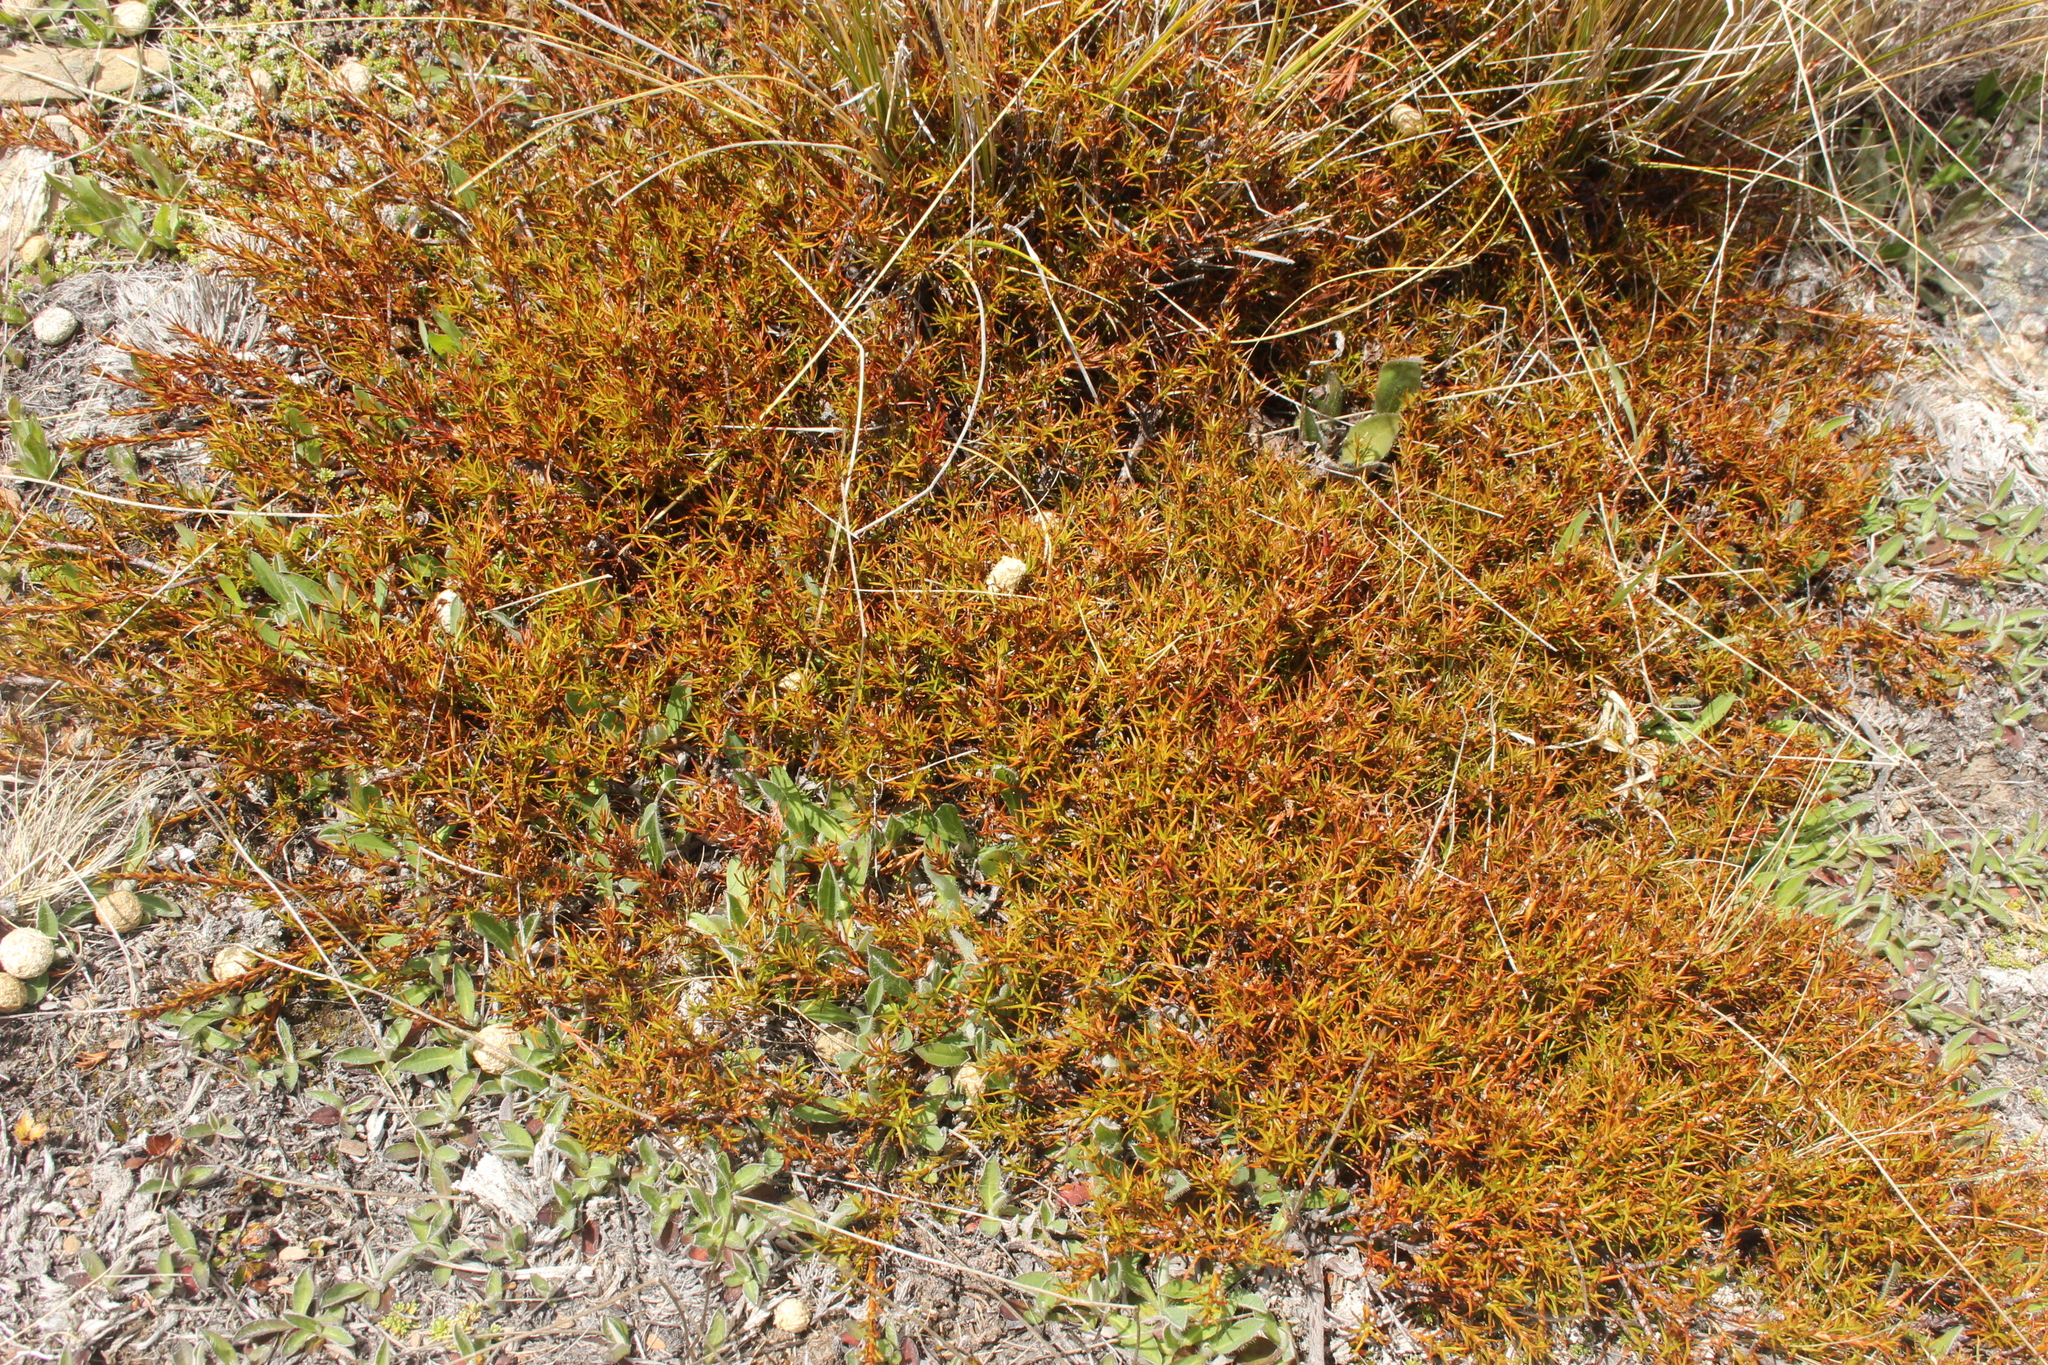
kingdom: Plantae
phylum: Tracheophyta
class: Magnoliopsida
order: Ericales
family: Ericaceae
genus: Dracophyllum
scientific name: Dracophyllum pronum
